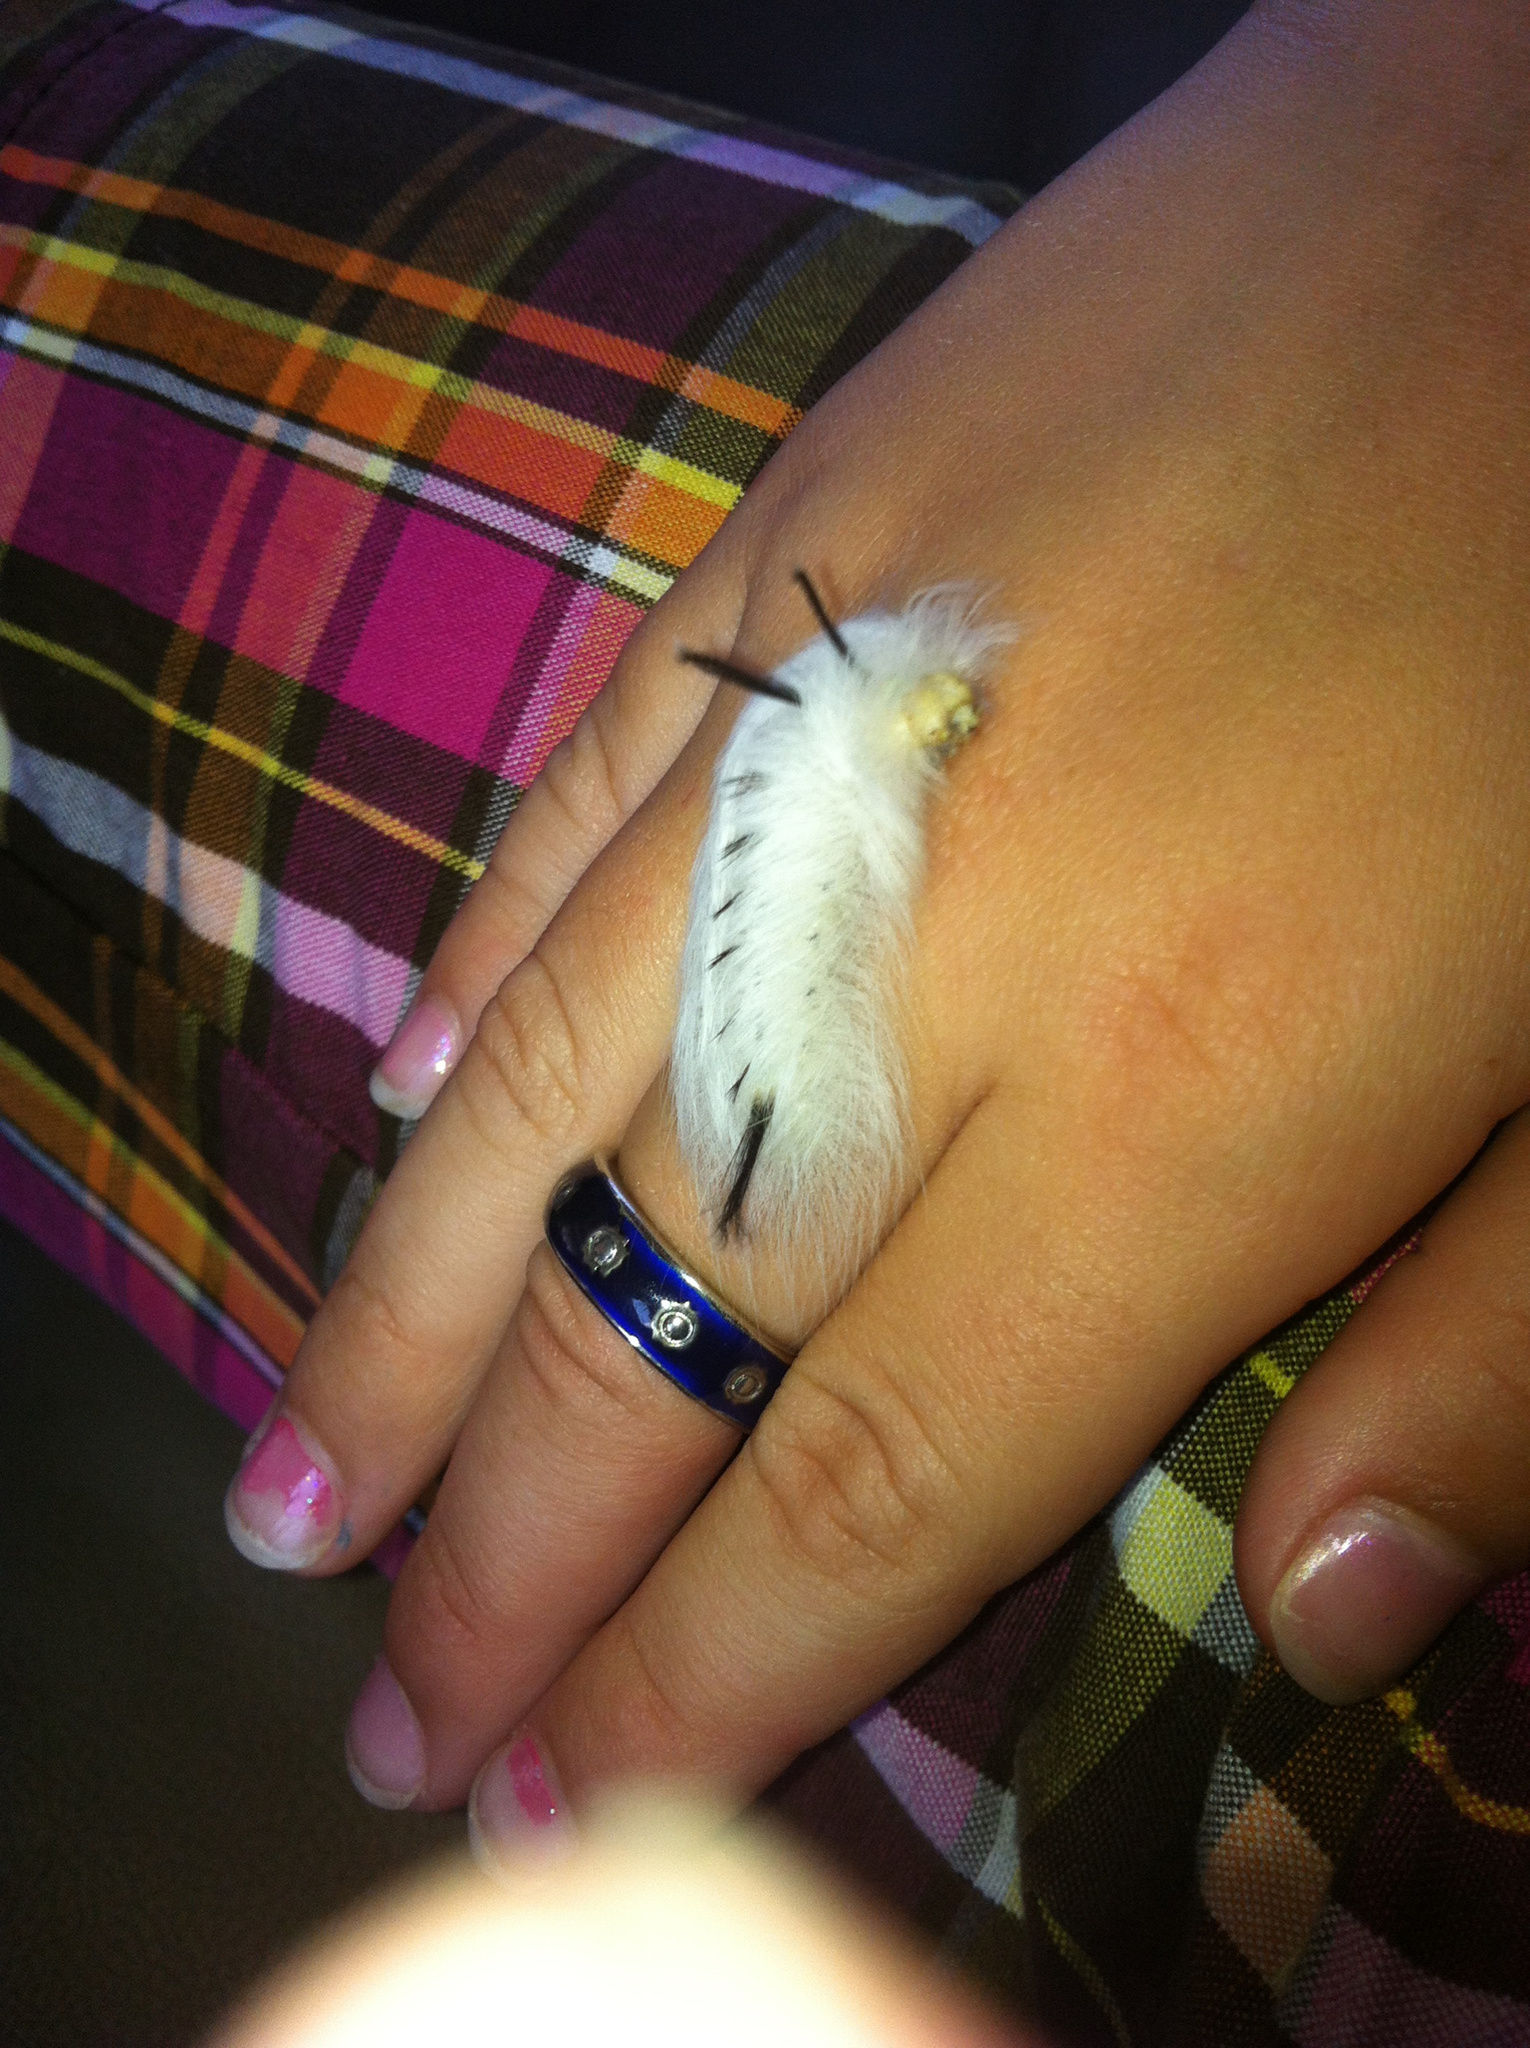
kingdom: Animalia
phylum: Arthropoda
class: Insecta
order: Lepidoptera
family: Apatelodidae
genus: Hygrochroa
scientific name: Hygrochroa Apatelodes torrefacta
